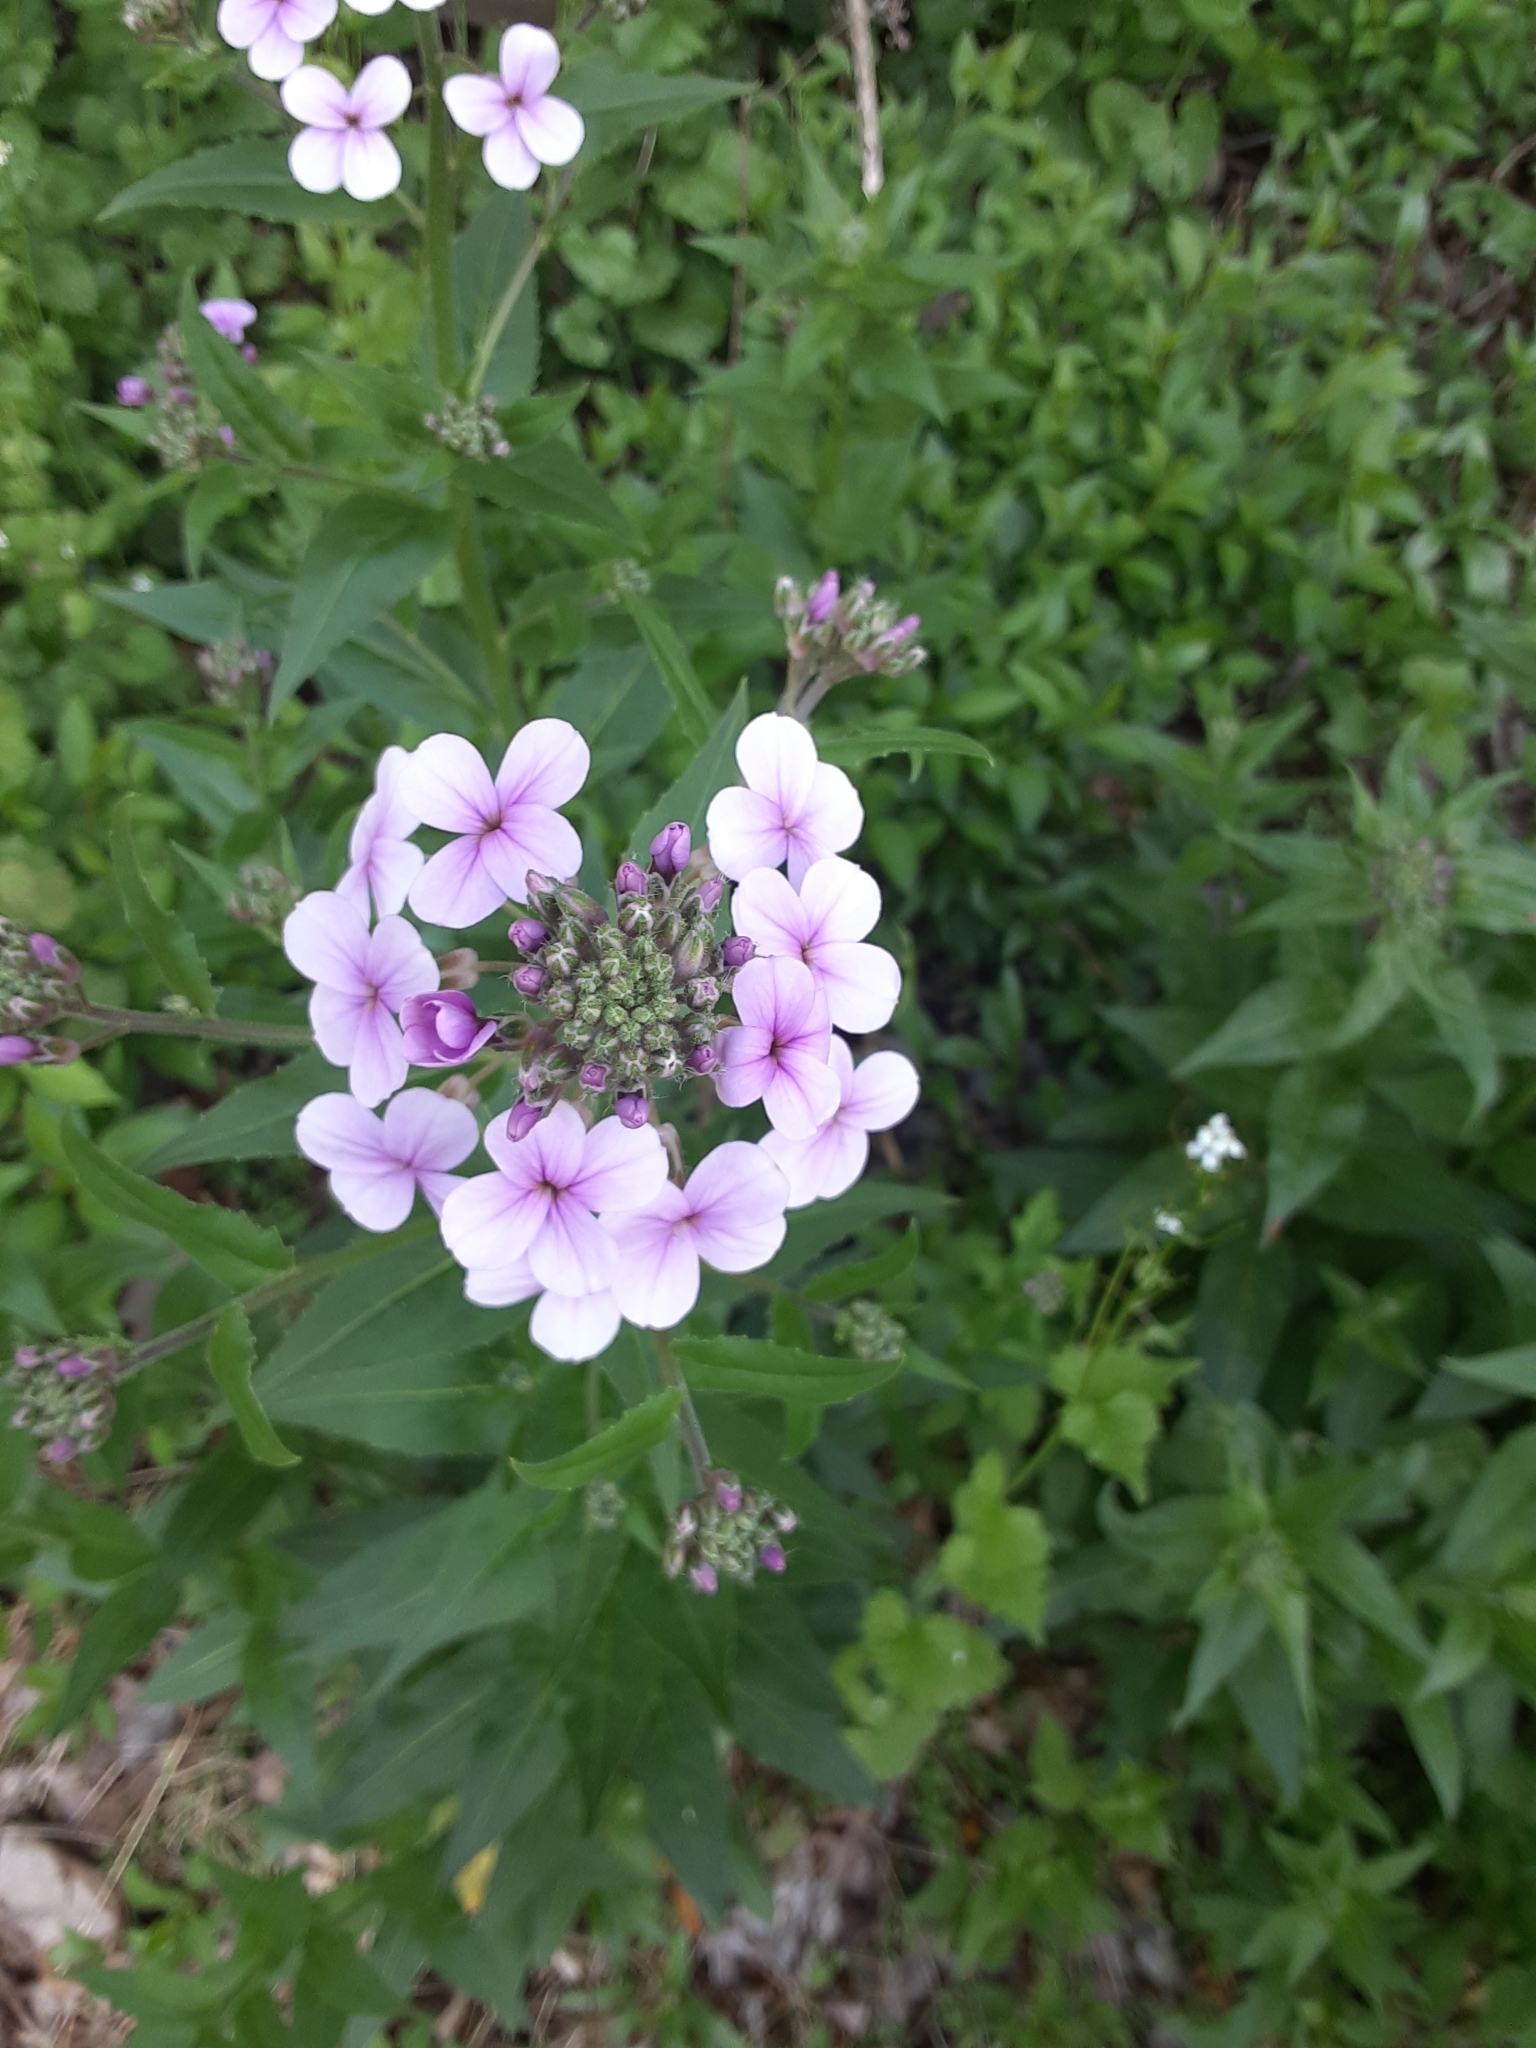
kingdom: Plantae
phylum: Tracheophyta
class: Magnoliopsida
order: Brassicales
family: Brassicaceae
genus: Hesperis
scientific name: Hesperis matronalis
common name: Dame's-violet
